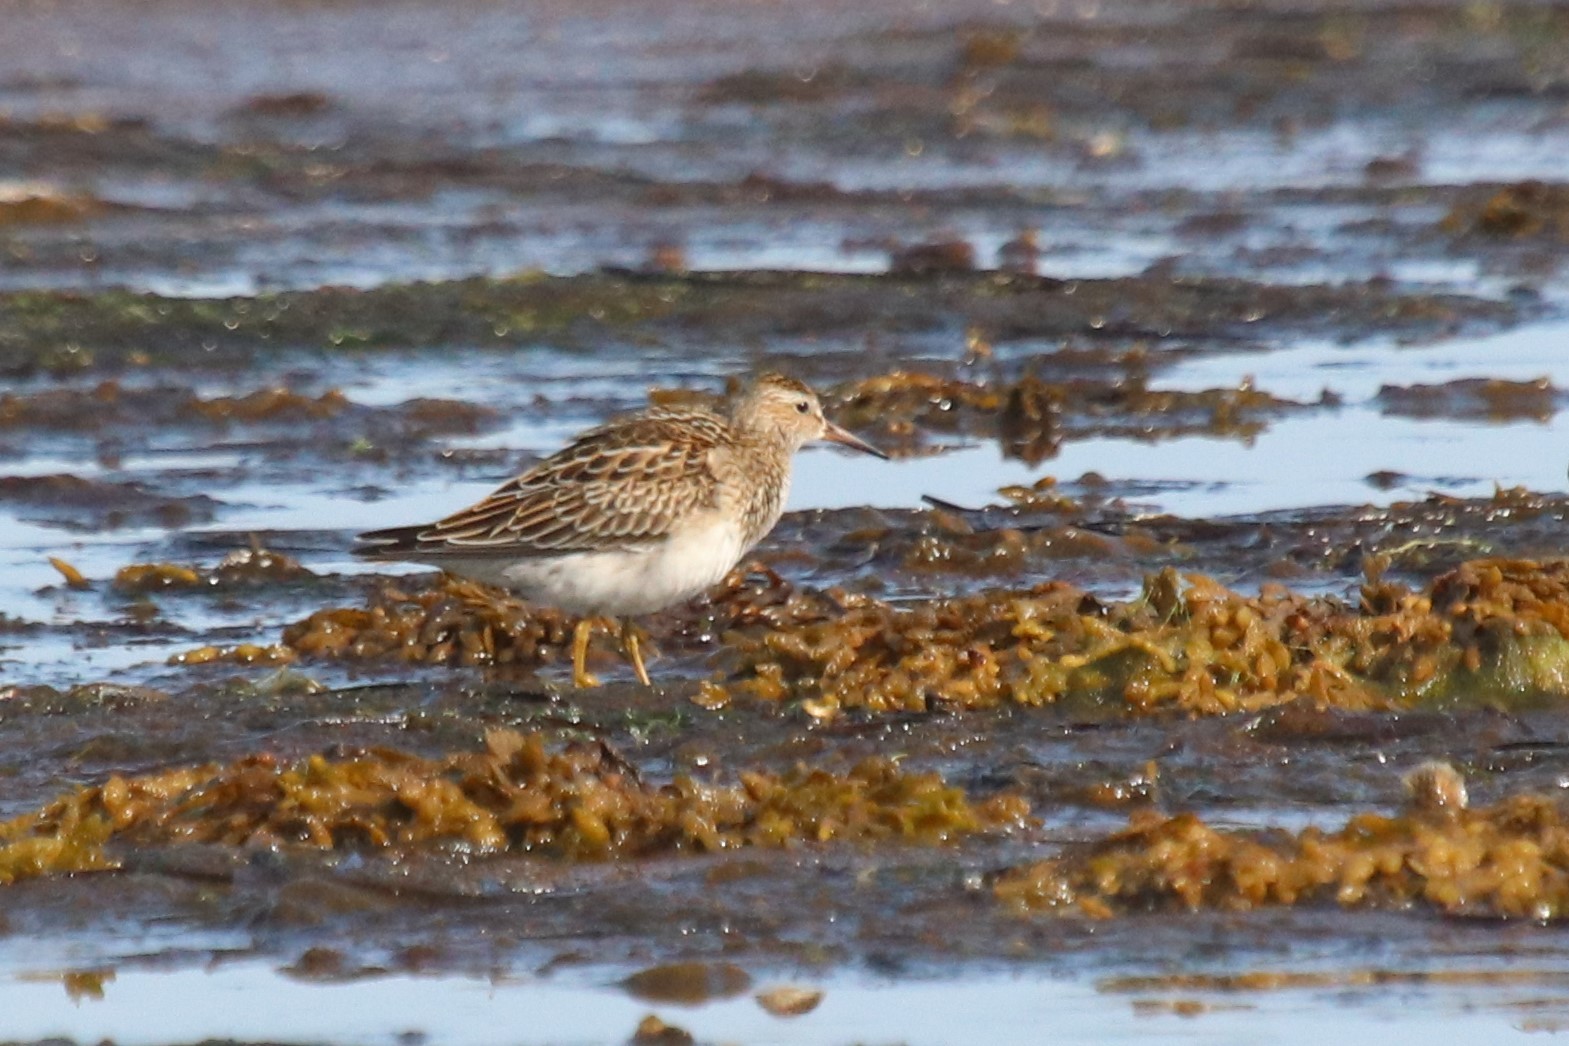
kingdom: Animalia
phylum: Chordata
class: Aves
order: Charadriiformes
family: Scolopacidae
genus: Calidris
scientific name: Calidris melanotos
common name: Pectoral sandpiper
